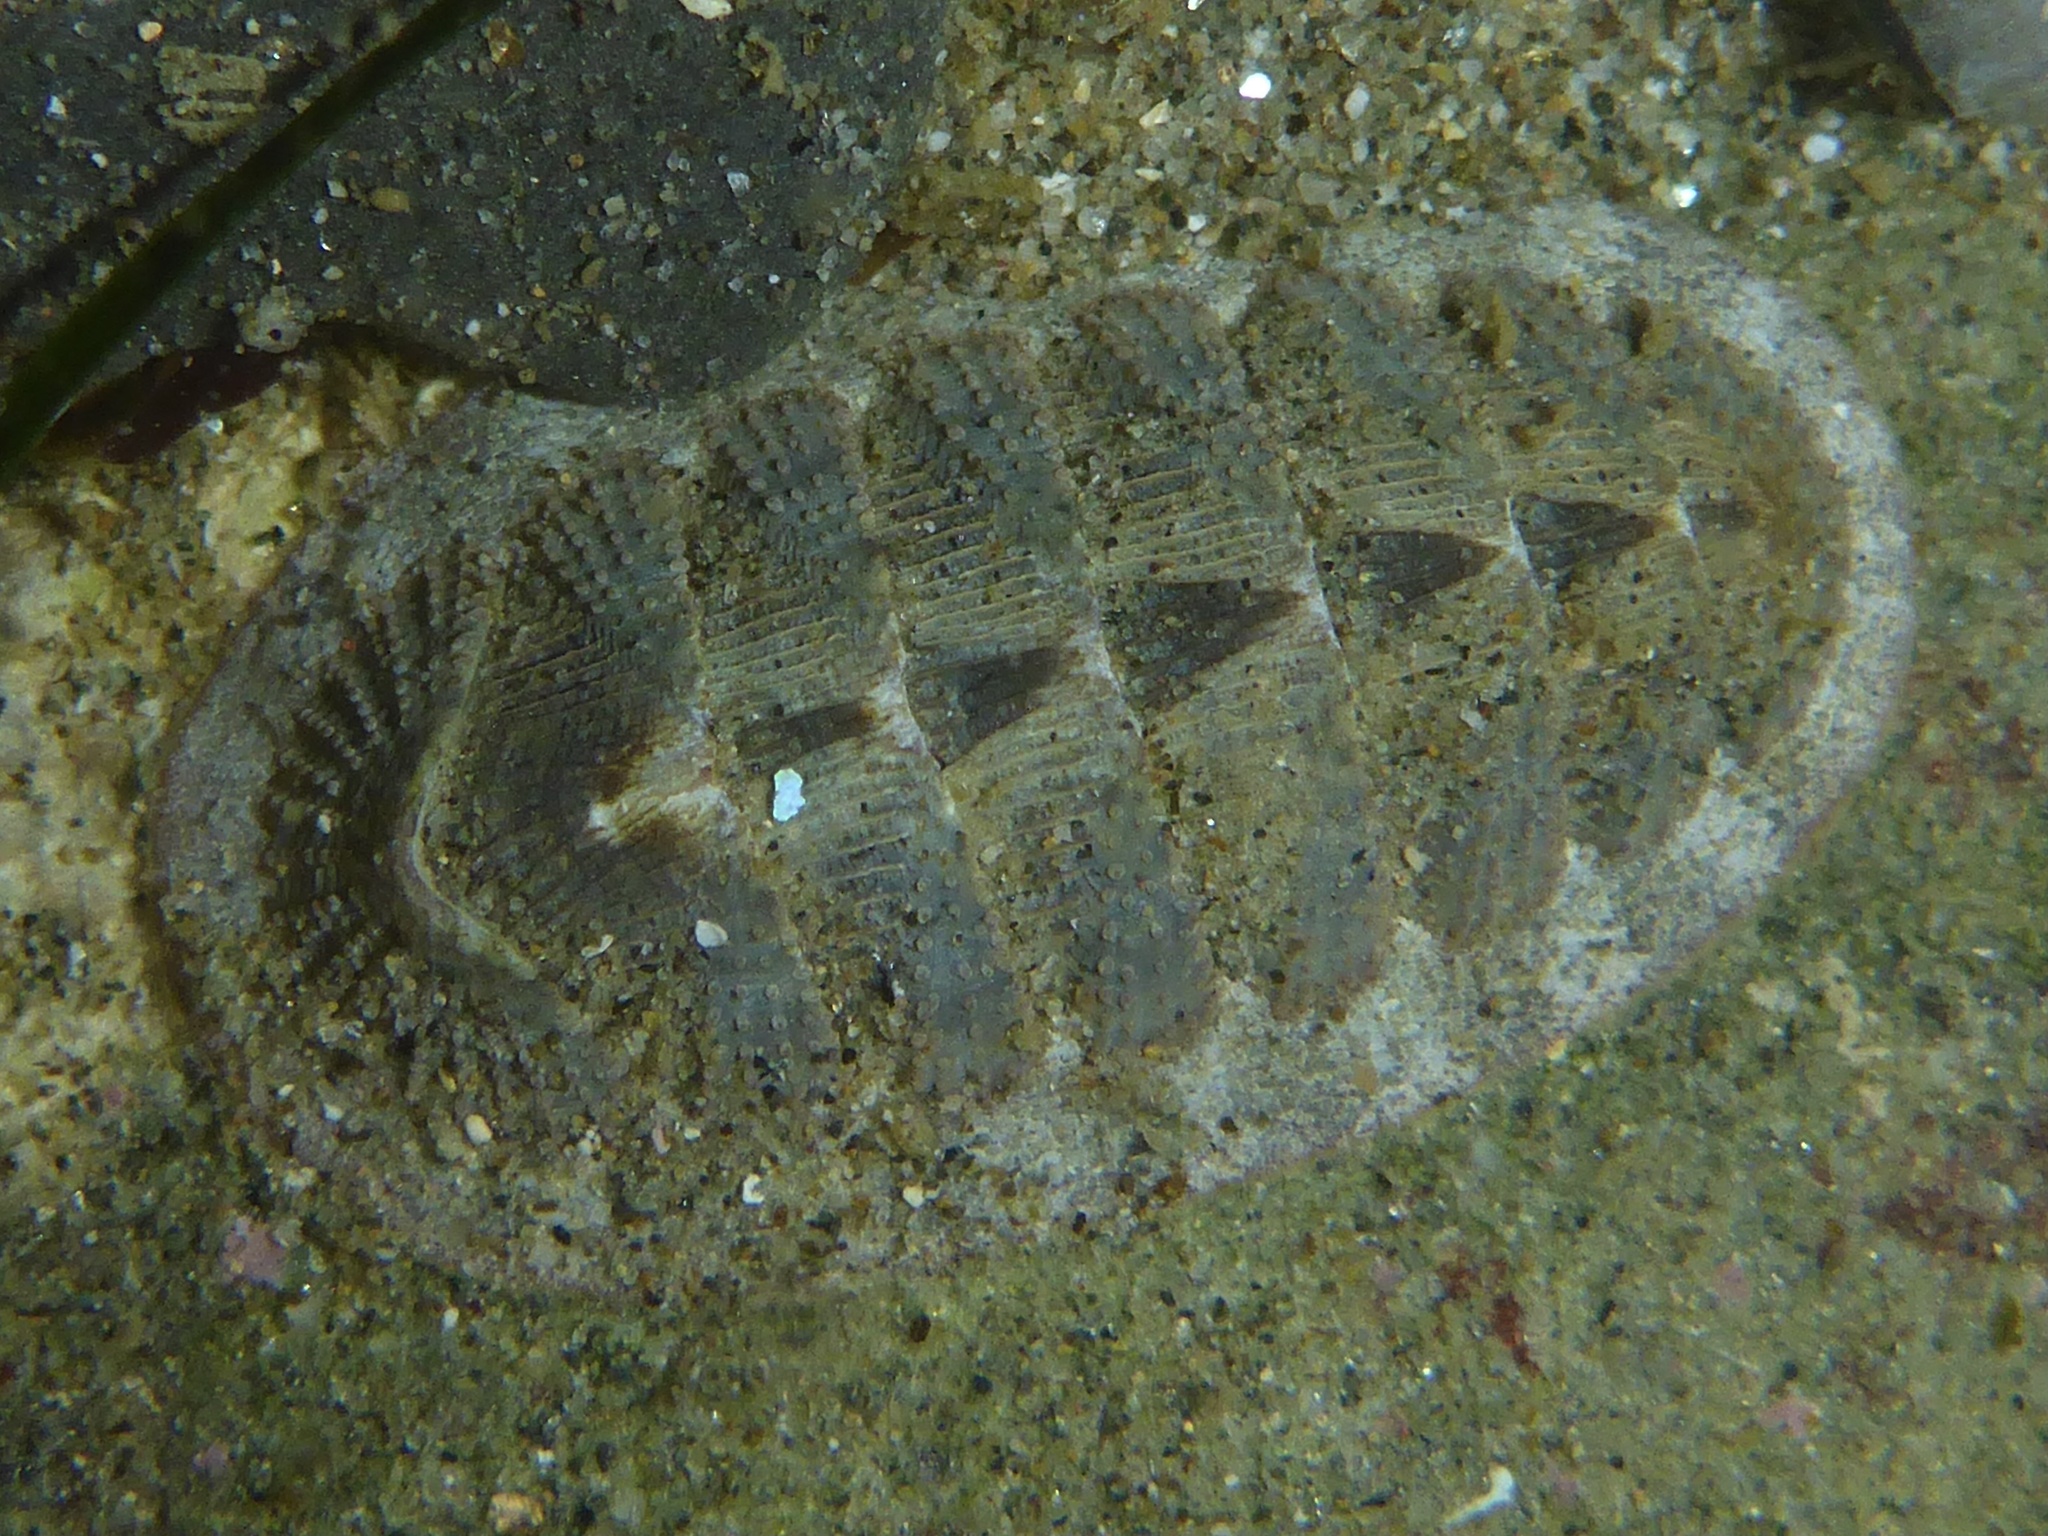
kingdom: Animalia
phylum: Mollusca
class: Polyplacophora
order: Chitonida
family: Ischnochitonidae
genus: Lepidozona
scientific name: Lepidozona cooperi
